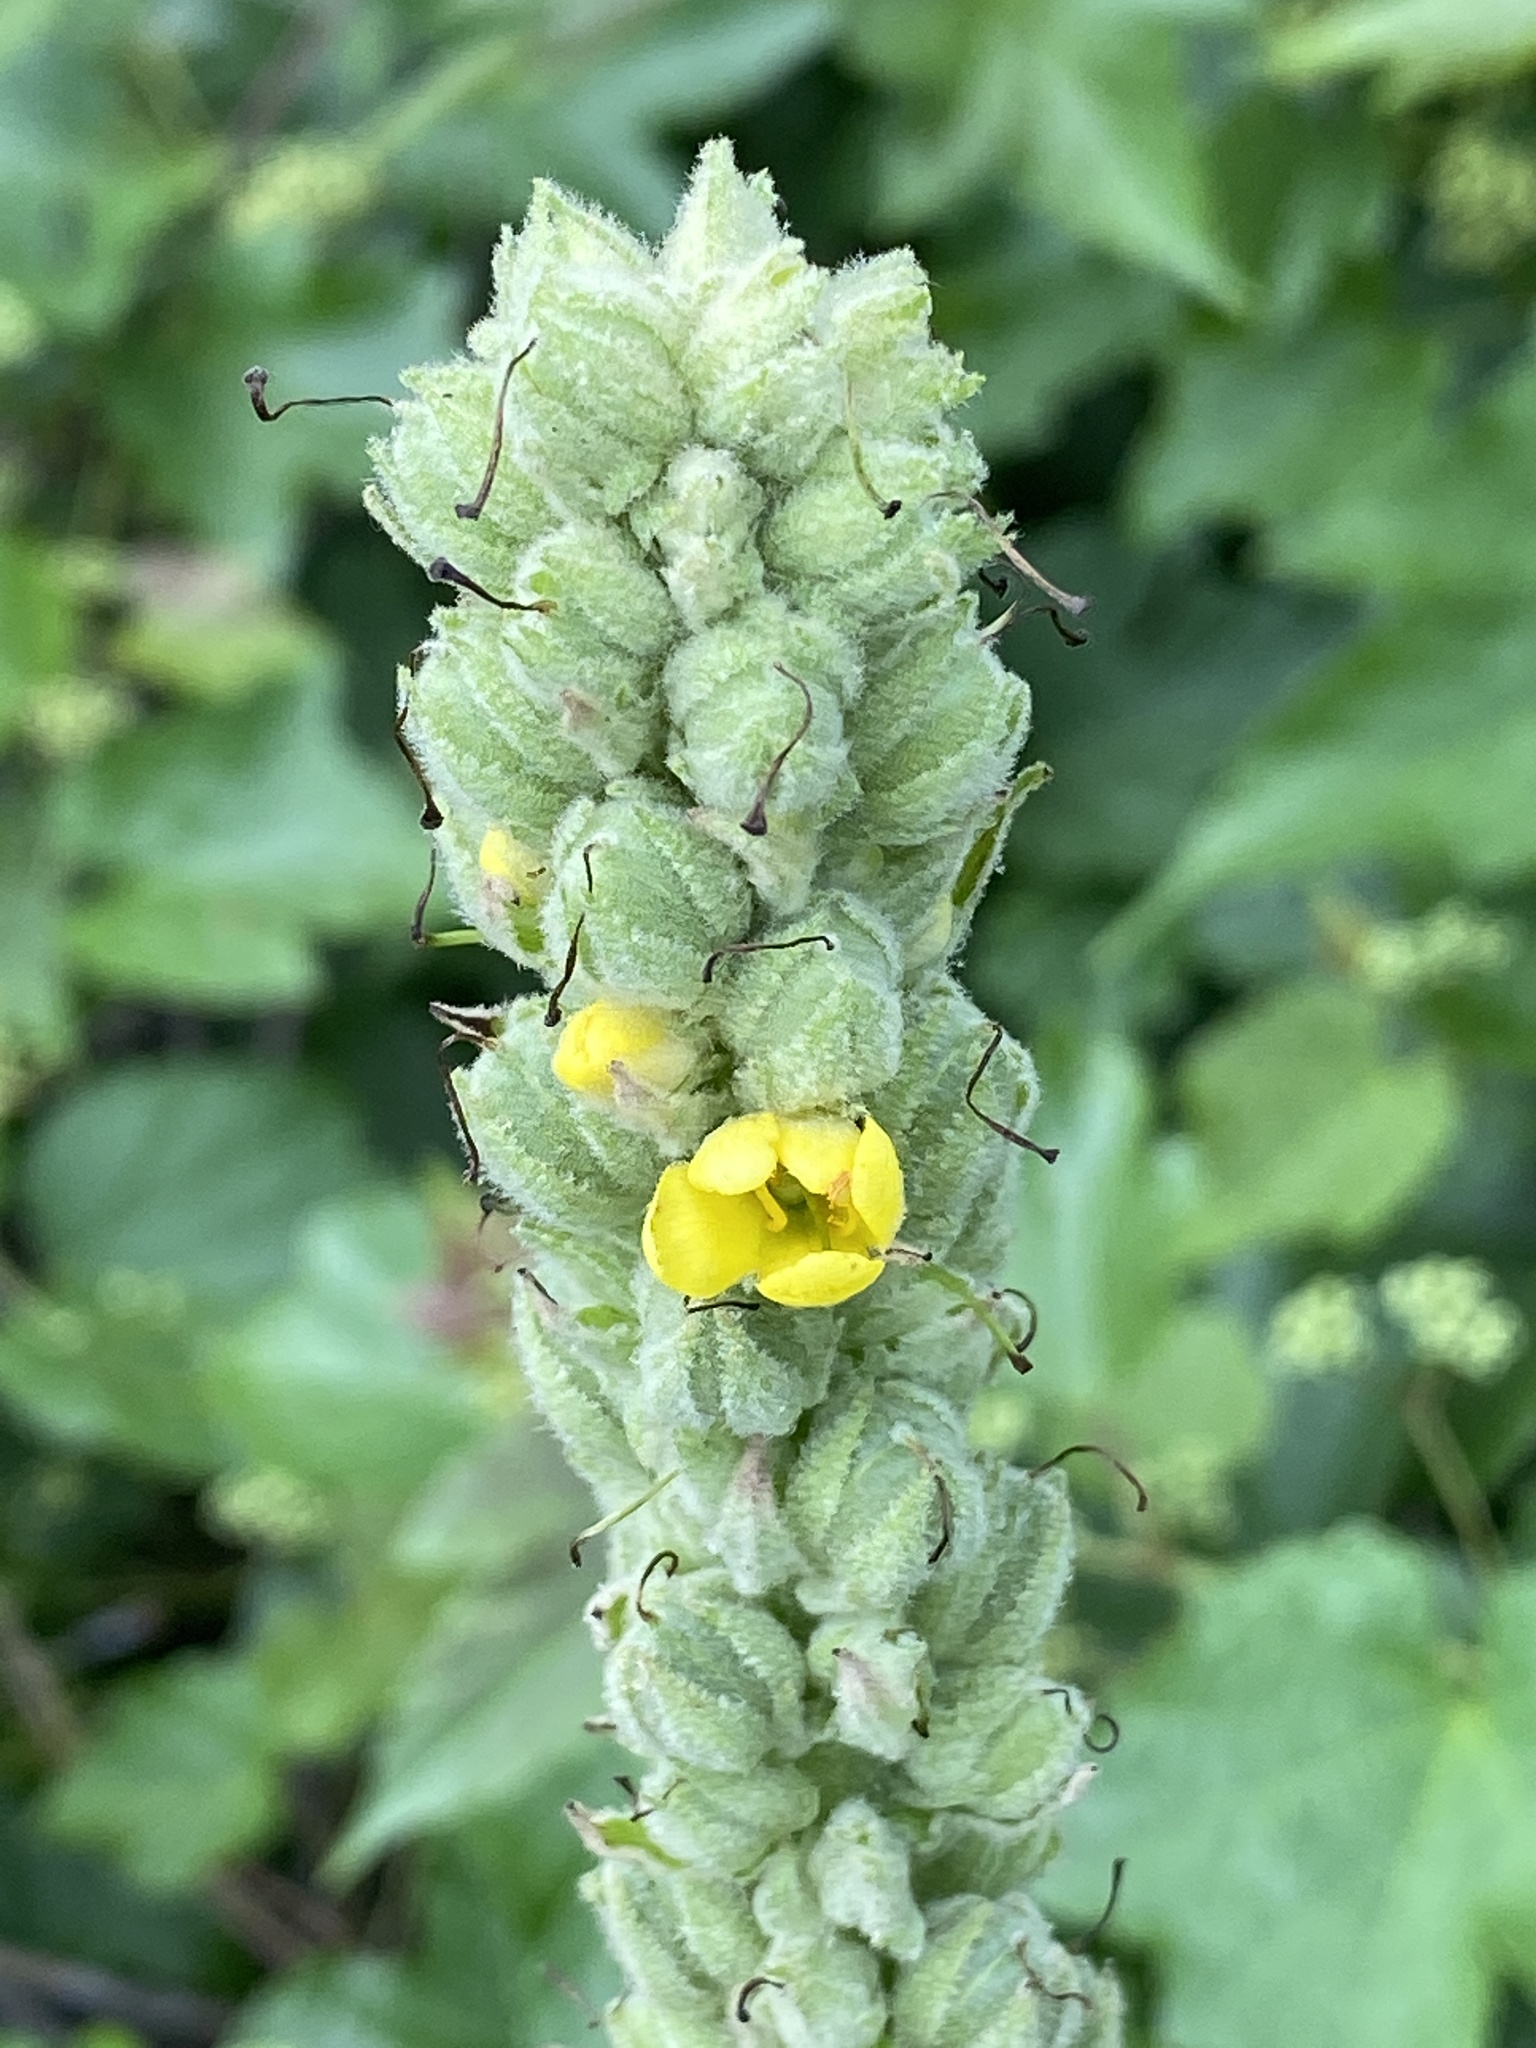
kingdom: Plantae
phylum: Tracheophyta
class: Magnoliopsida
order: Lamiales
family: Scrophulariaceae
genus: Verbascum
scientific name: Verbascum thapsus
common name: Common mullein
